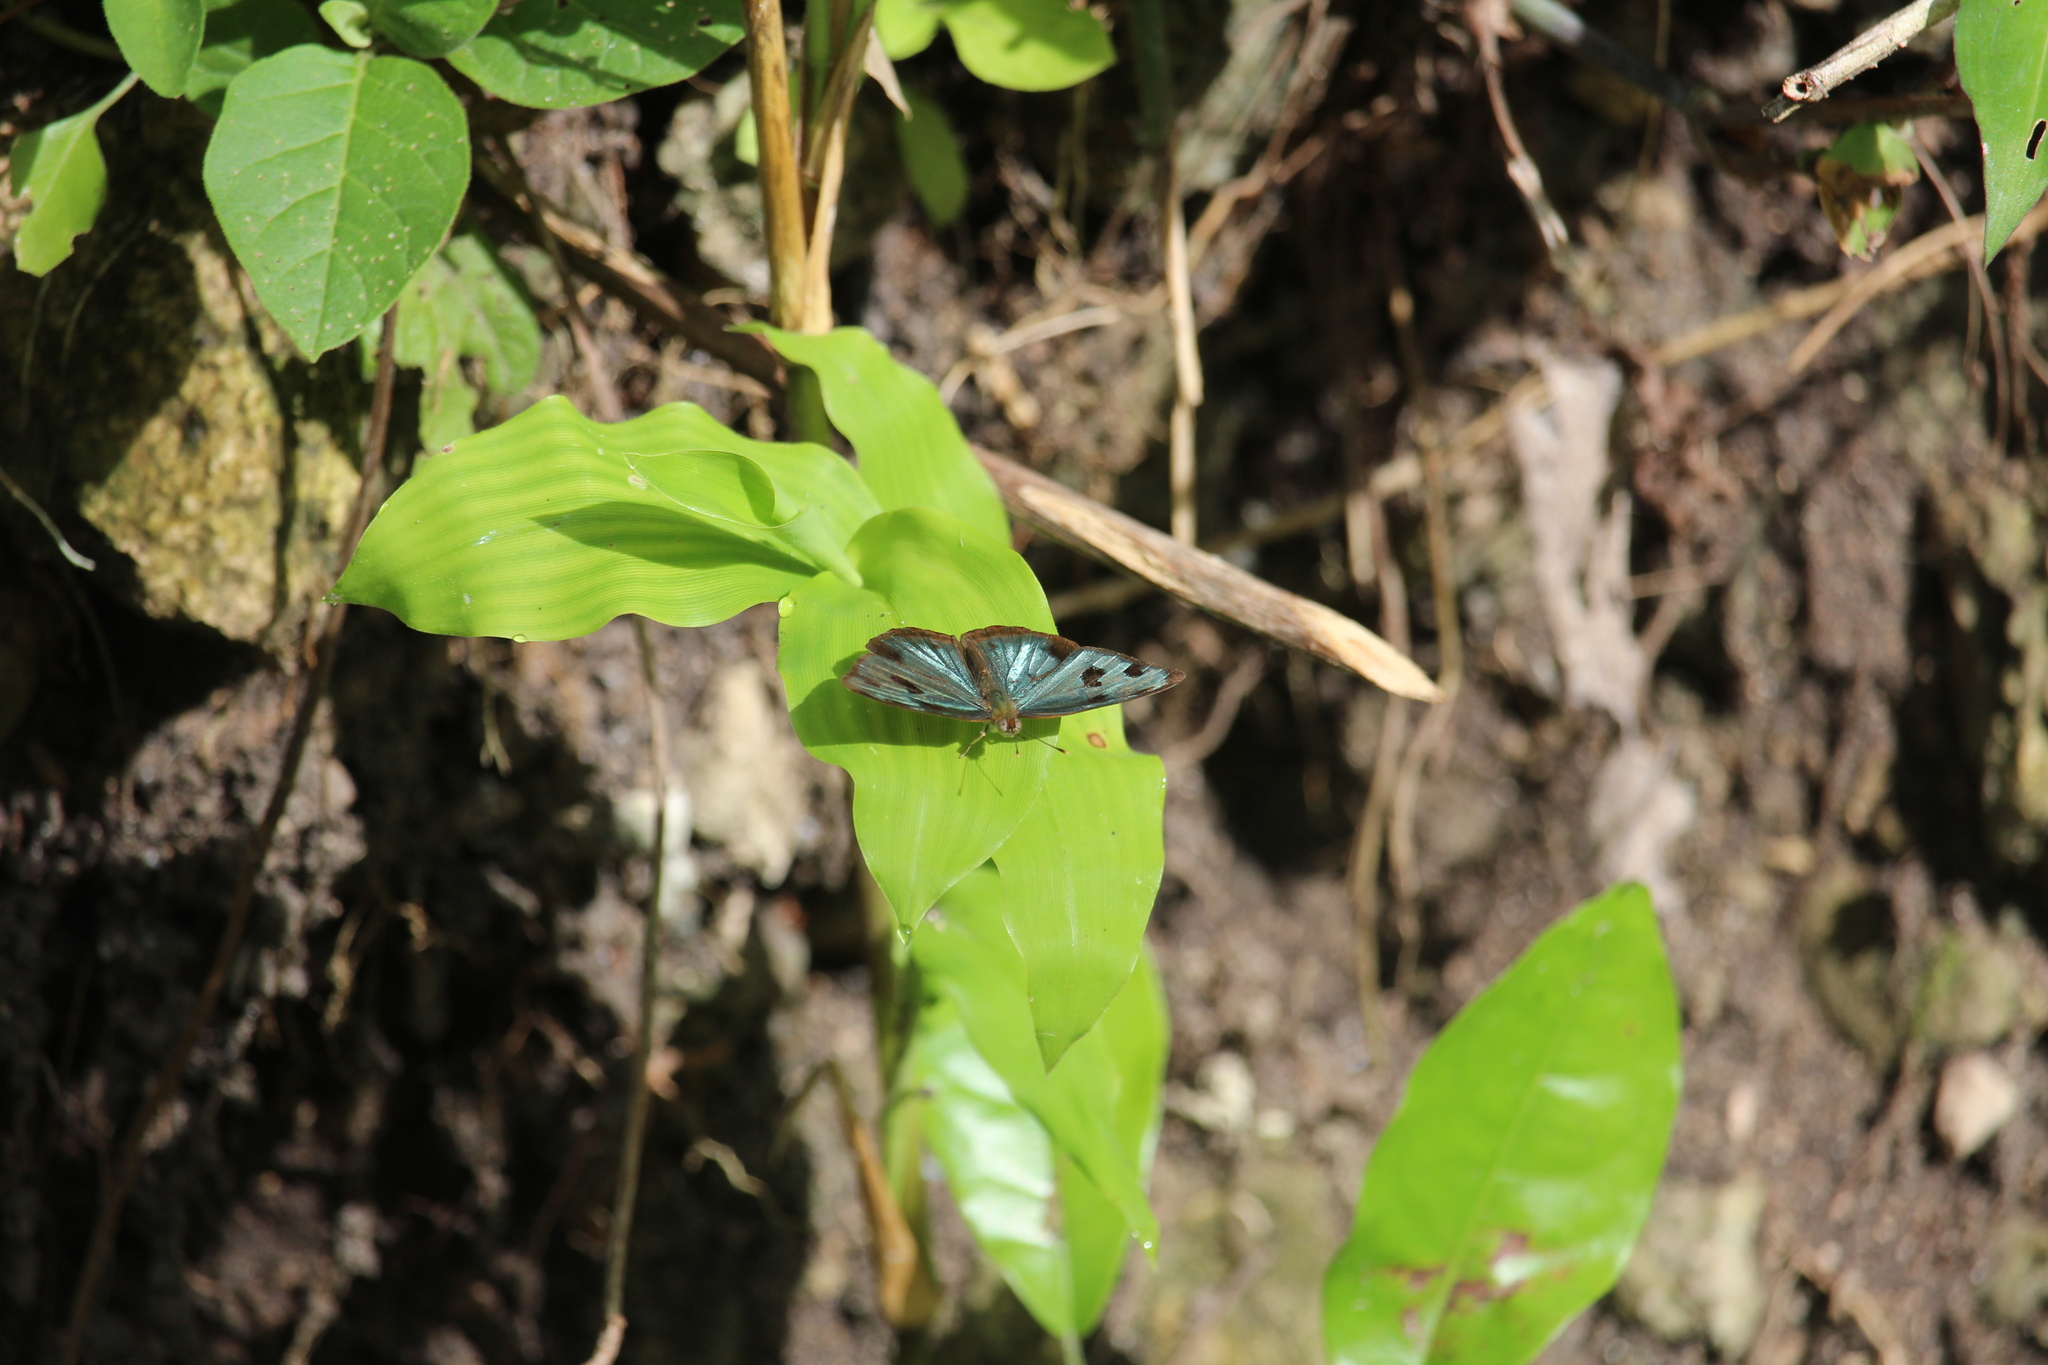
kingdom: Animalia
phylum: Arthropoda
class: Insecta
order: Lepidoptera
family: Nymphalidae
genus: Dynamine
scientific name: Dynamine mylitta
